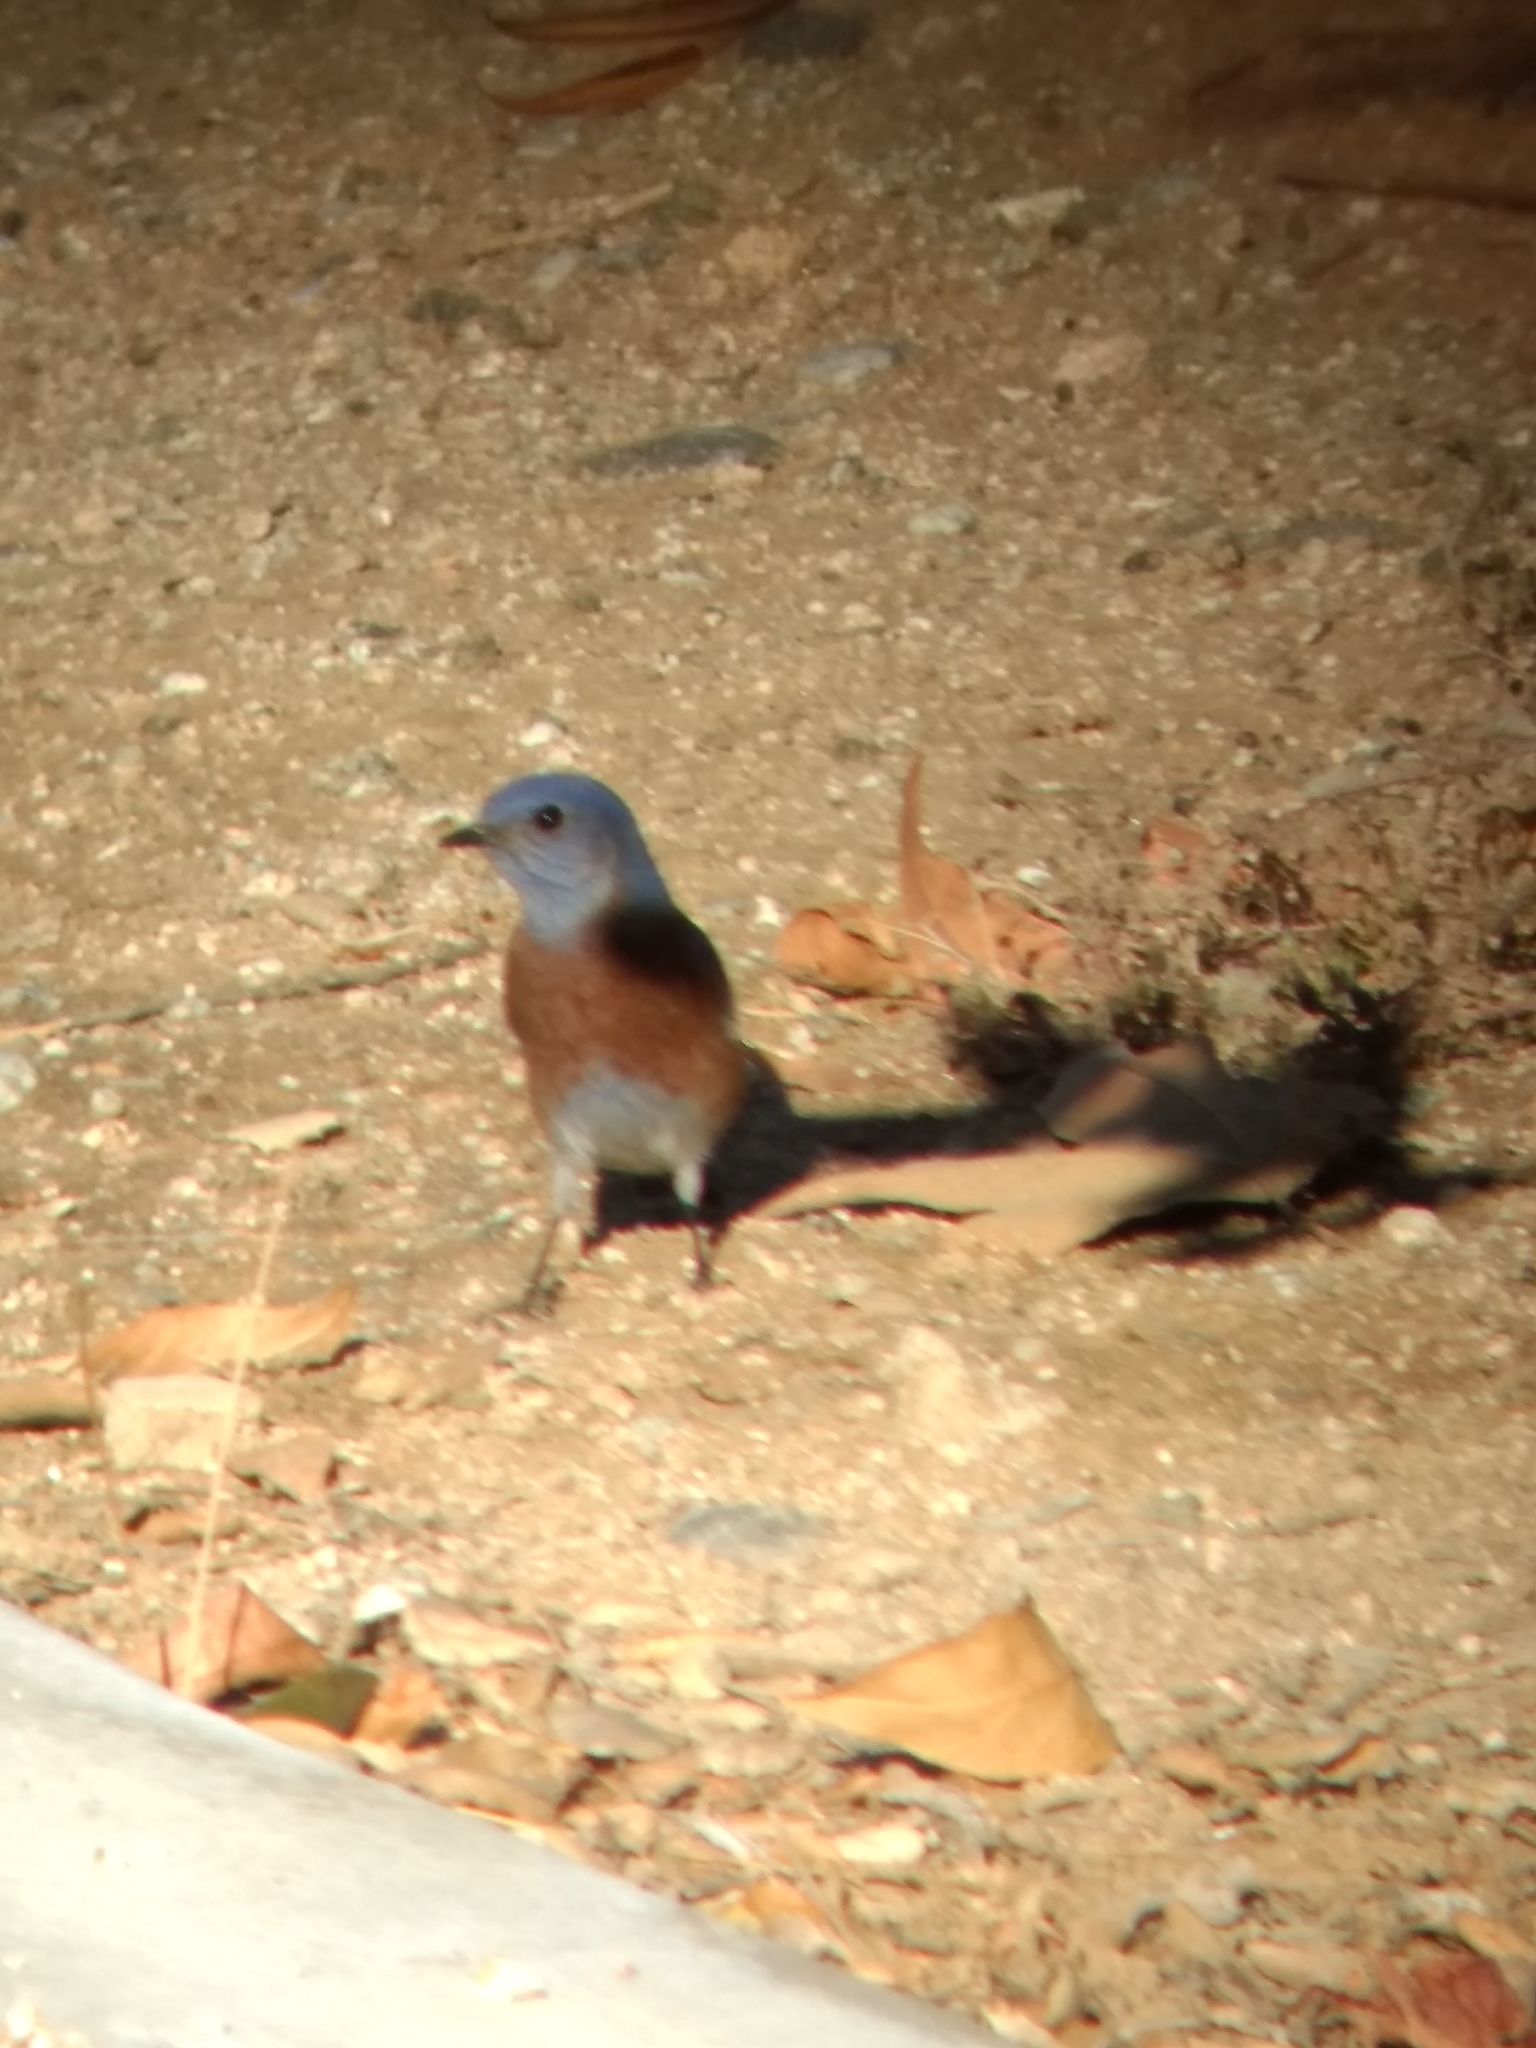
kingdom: Animalia
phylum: Chordata
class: Aves
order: Passeriformes
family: Turdidae
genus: Sialia
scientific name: Sialia mexicana
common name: Western bluebird
